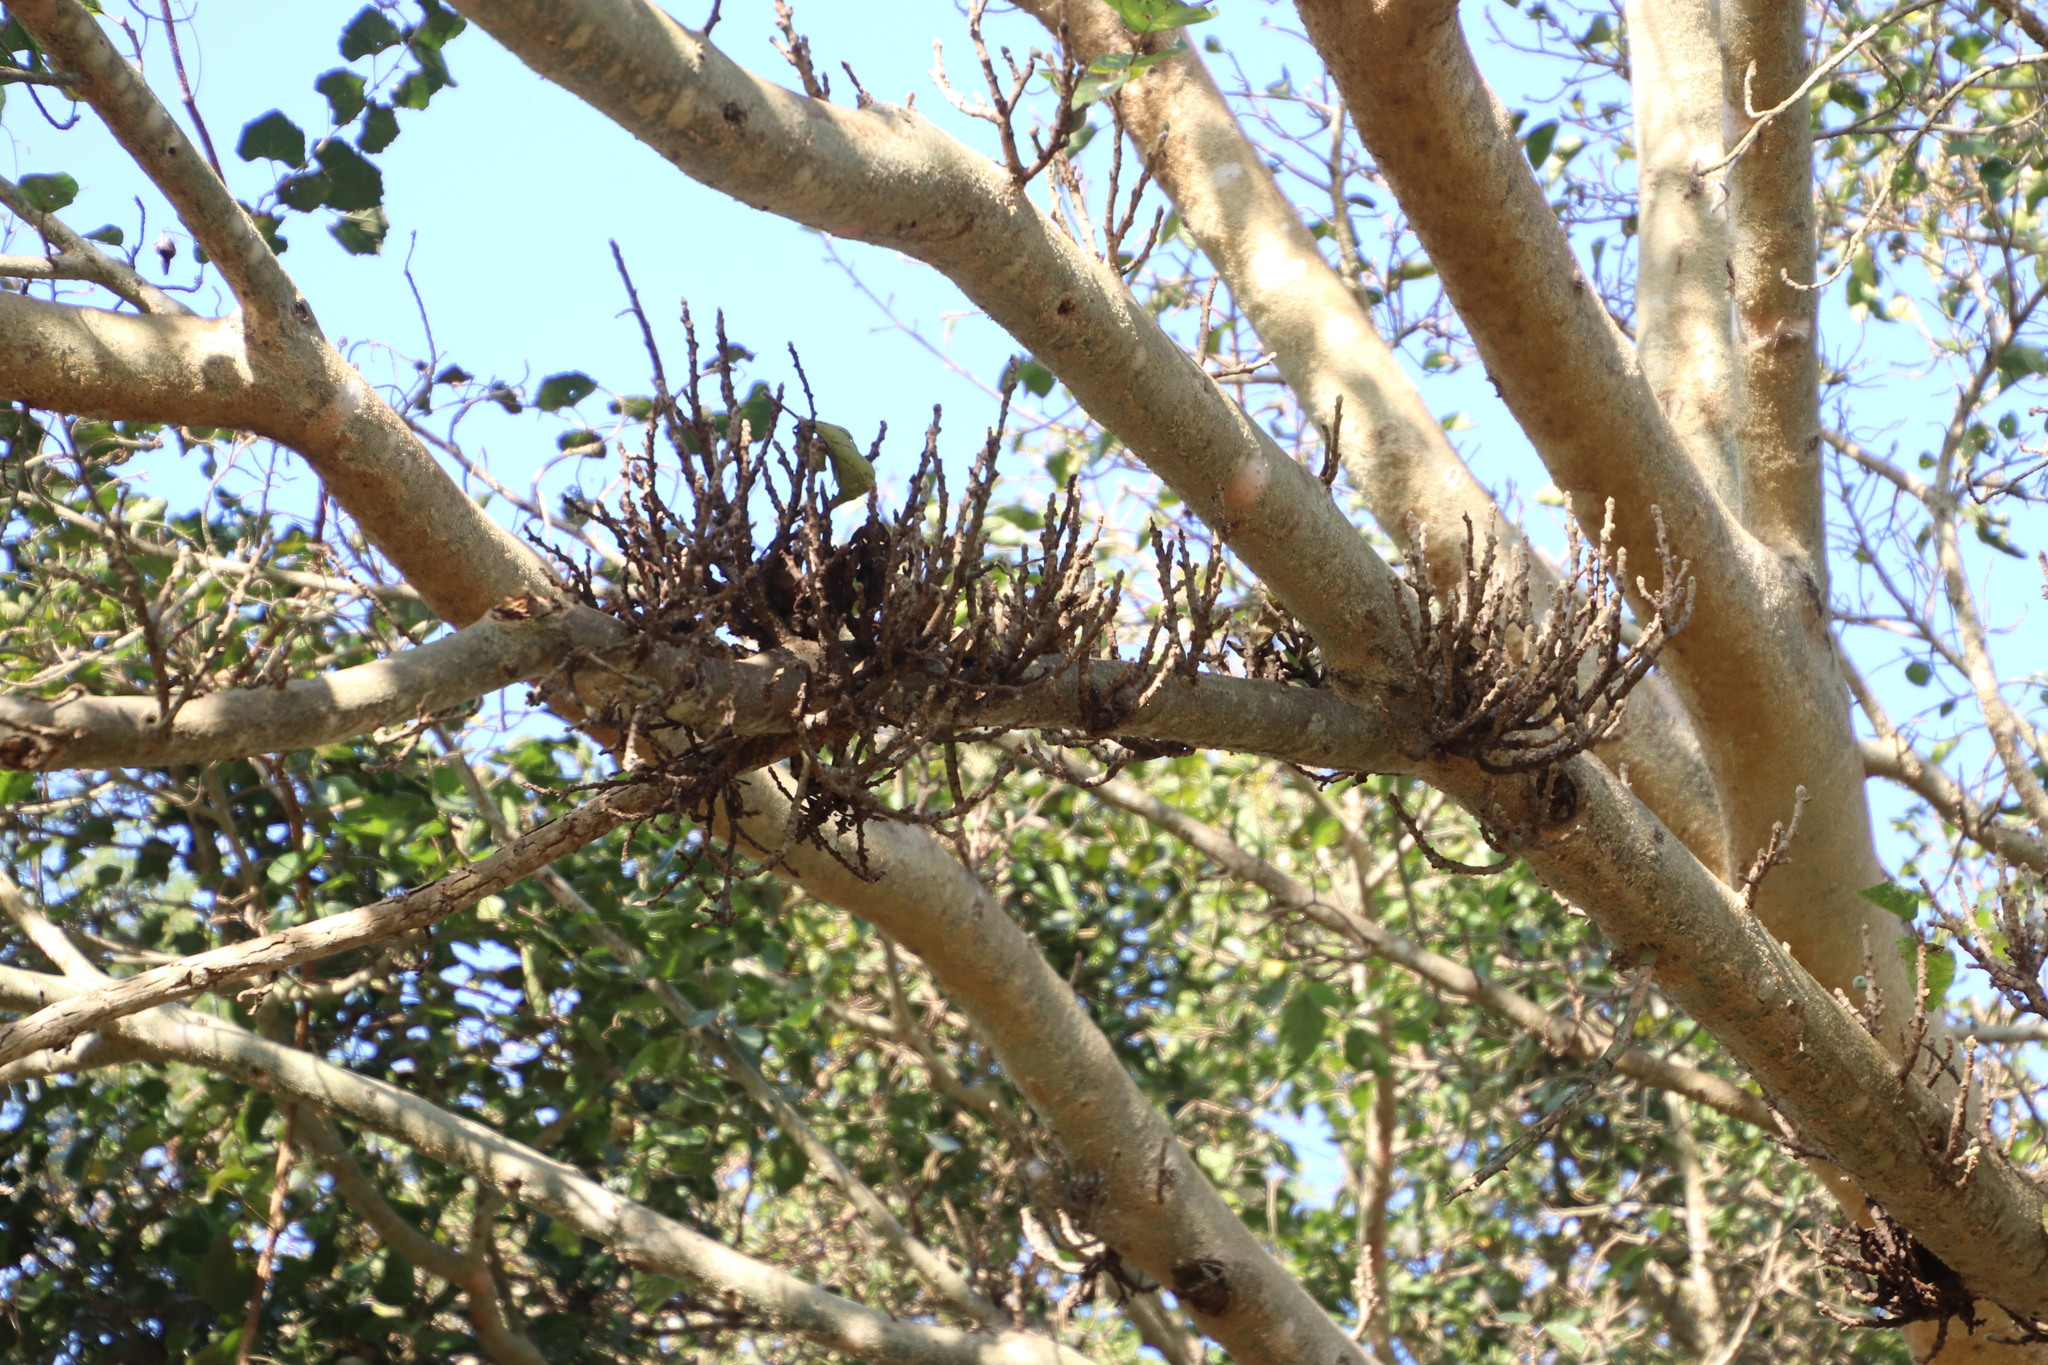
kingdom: Plantae
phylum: Tracheophyta
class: Magnoliopsida
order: Rosales
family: Moraceae
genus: Ficus
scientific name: Ficus sycomorus
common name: Sycomore
